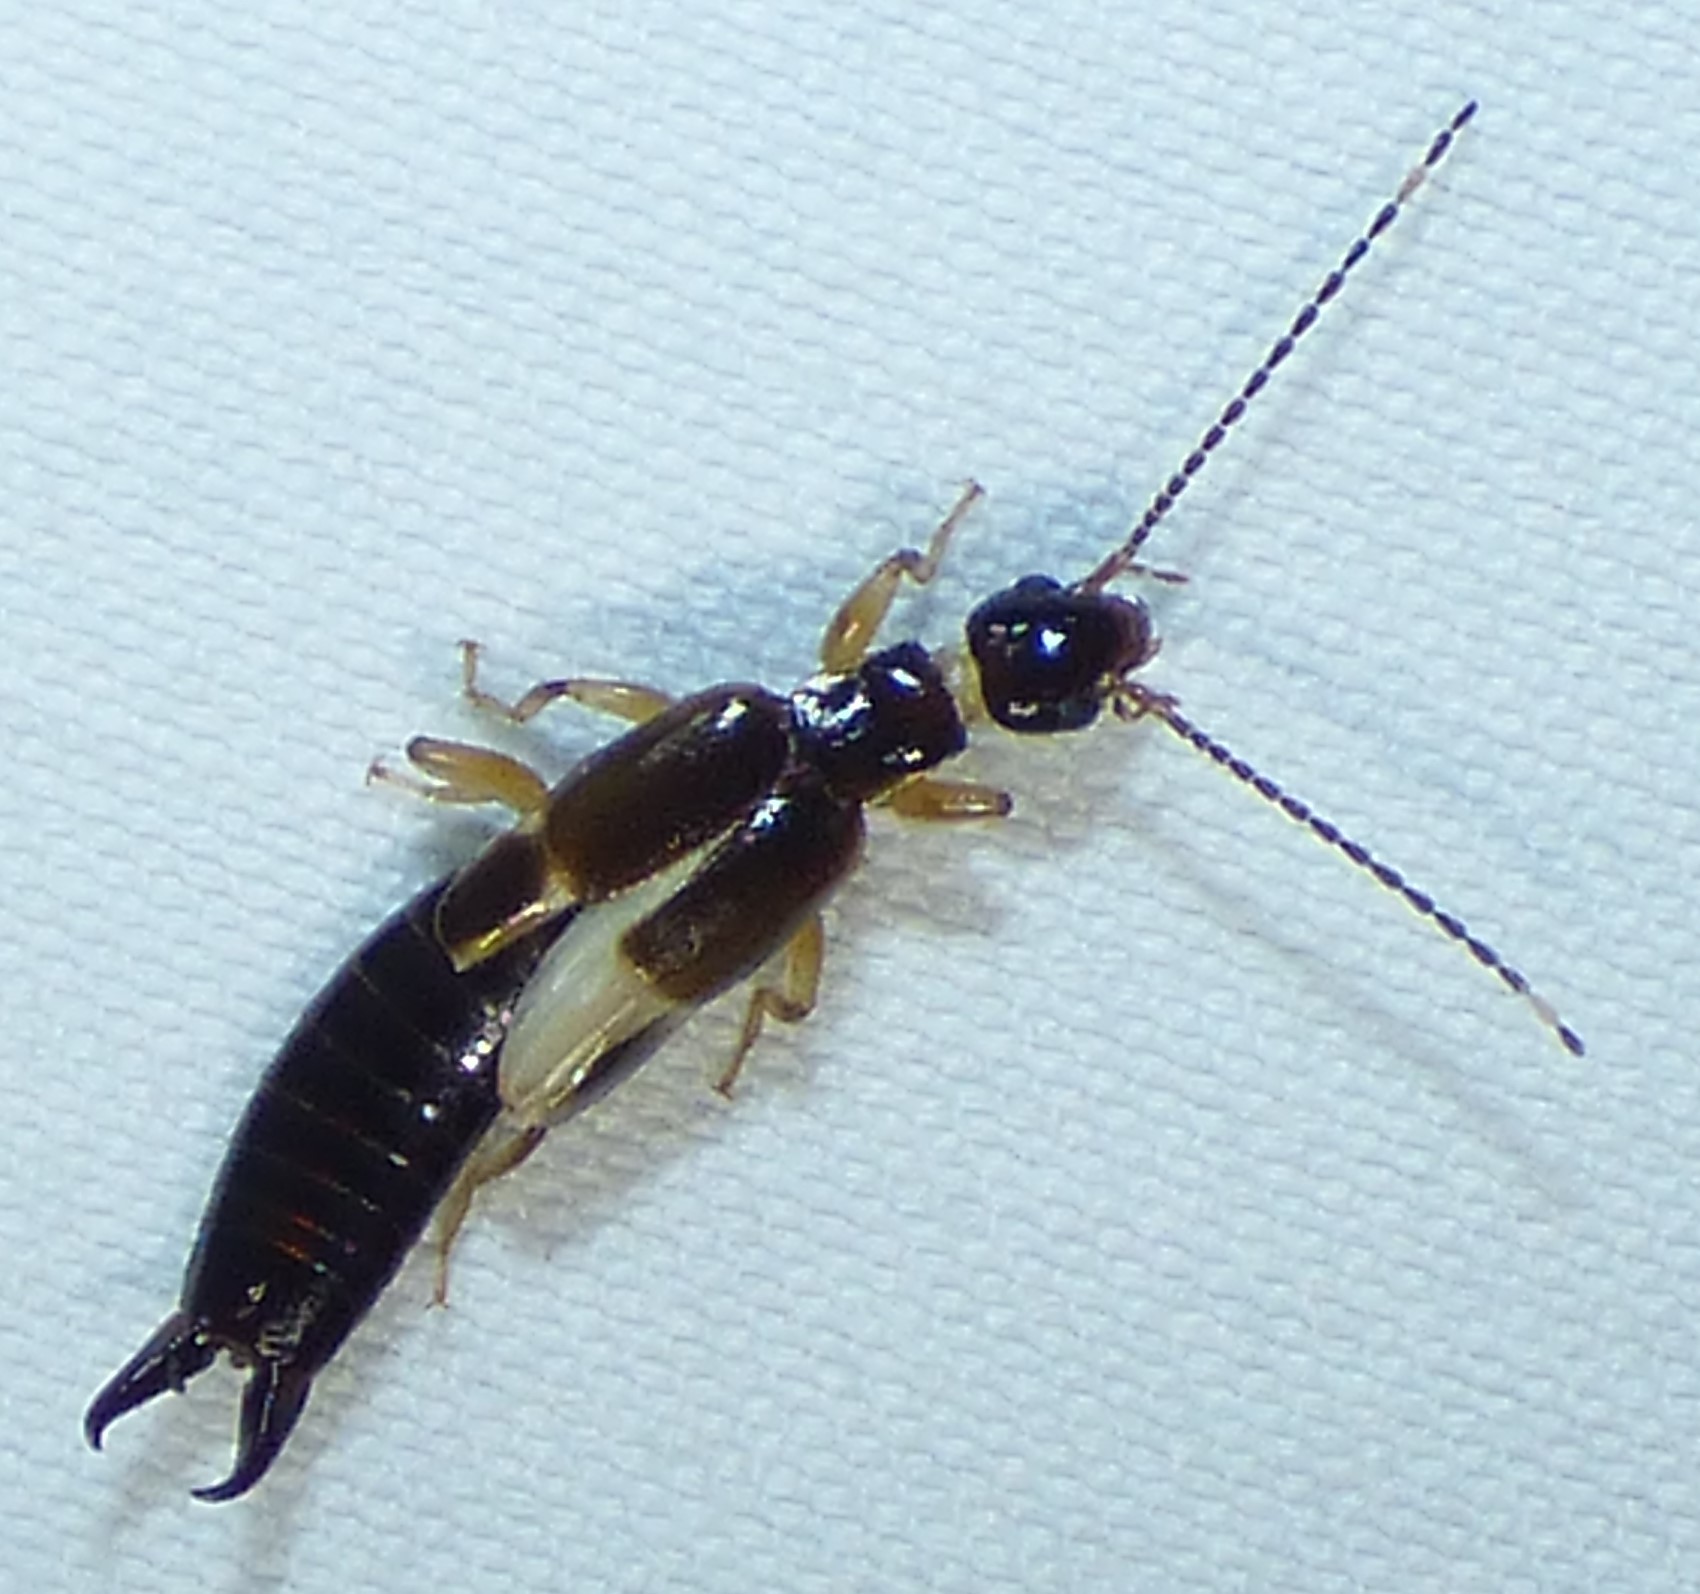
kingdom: Animalia
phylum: Arthropoda
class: Insecta
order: Dermaptera
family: Anisolabididae
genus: Euborellia
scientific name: Euborellia cincticollis
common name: African earwig
